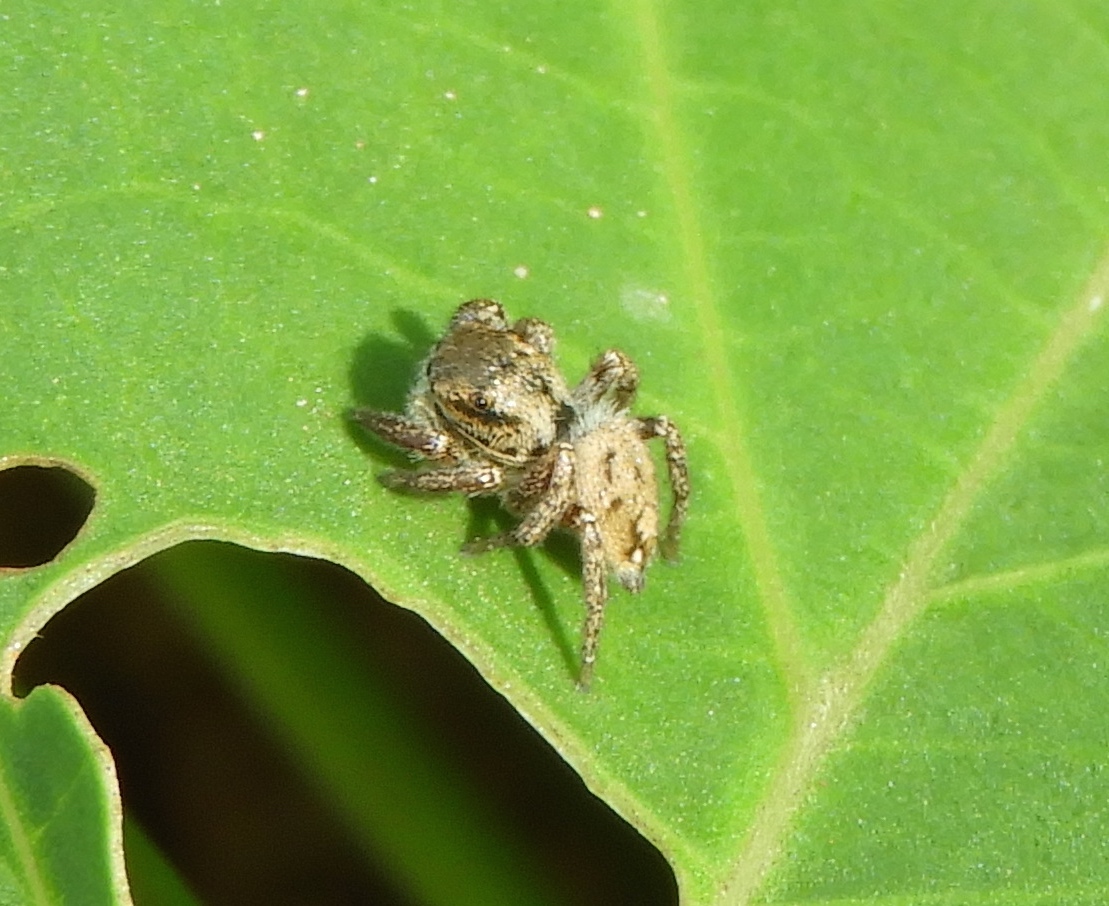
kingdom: Animalia
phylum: Arthropoda
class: Arachnida
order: Araneae
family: Salticidae
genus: Habronattus
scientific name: Habronattus
